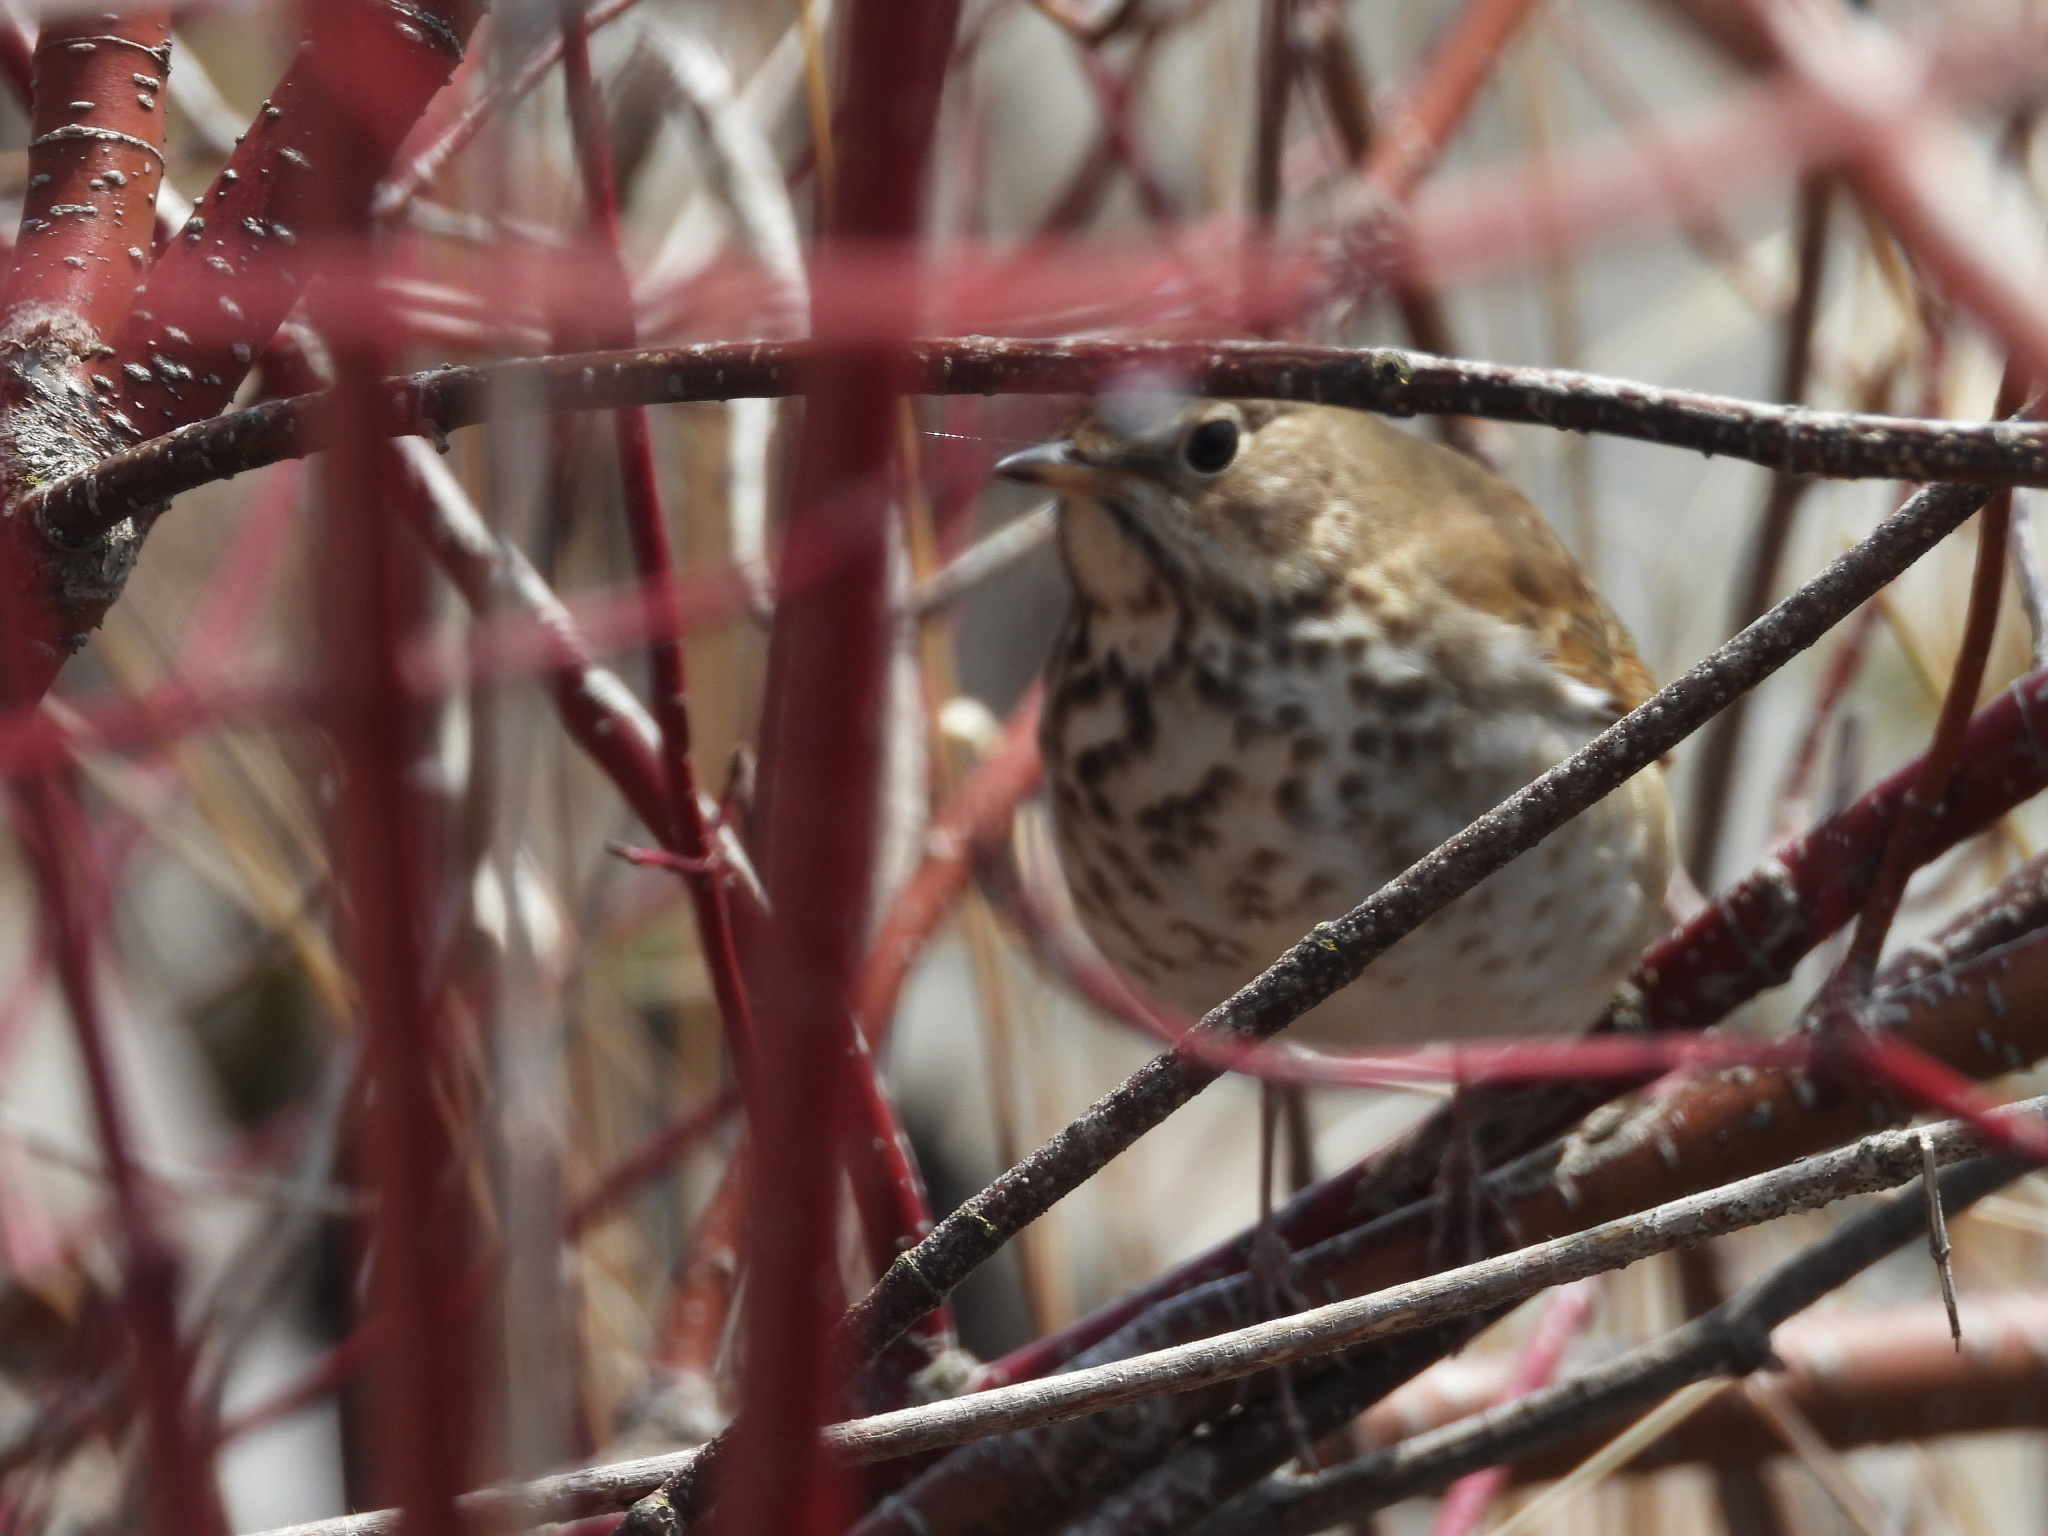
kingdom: Animalia
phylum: Chordata
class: Aves
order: Passeriformes
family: Turdidae
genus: Catharus
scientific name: Catharus guttatus
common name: Hermit thrush
